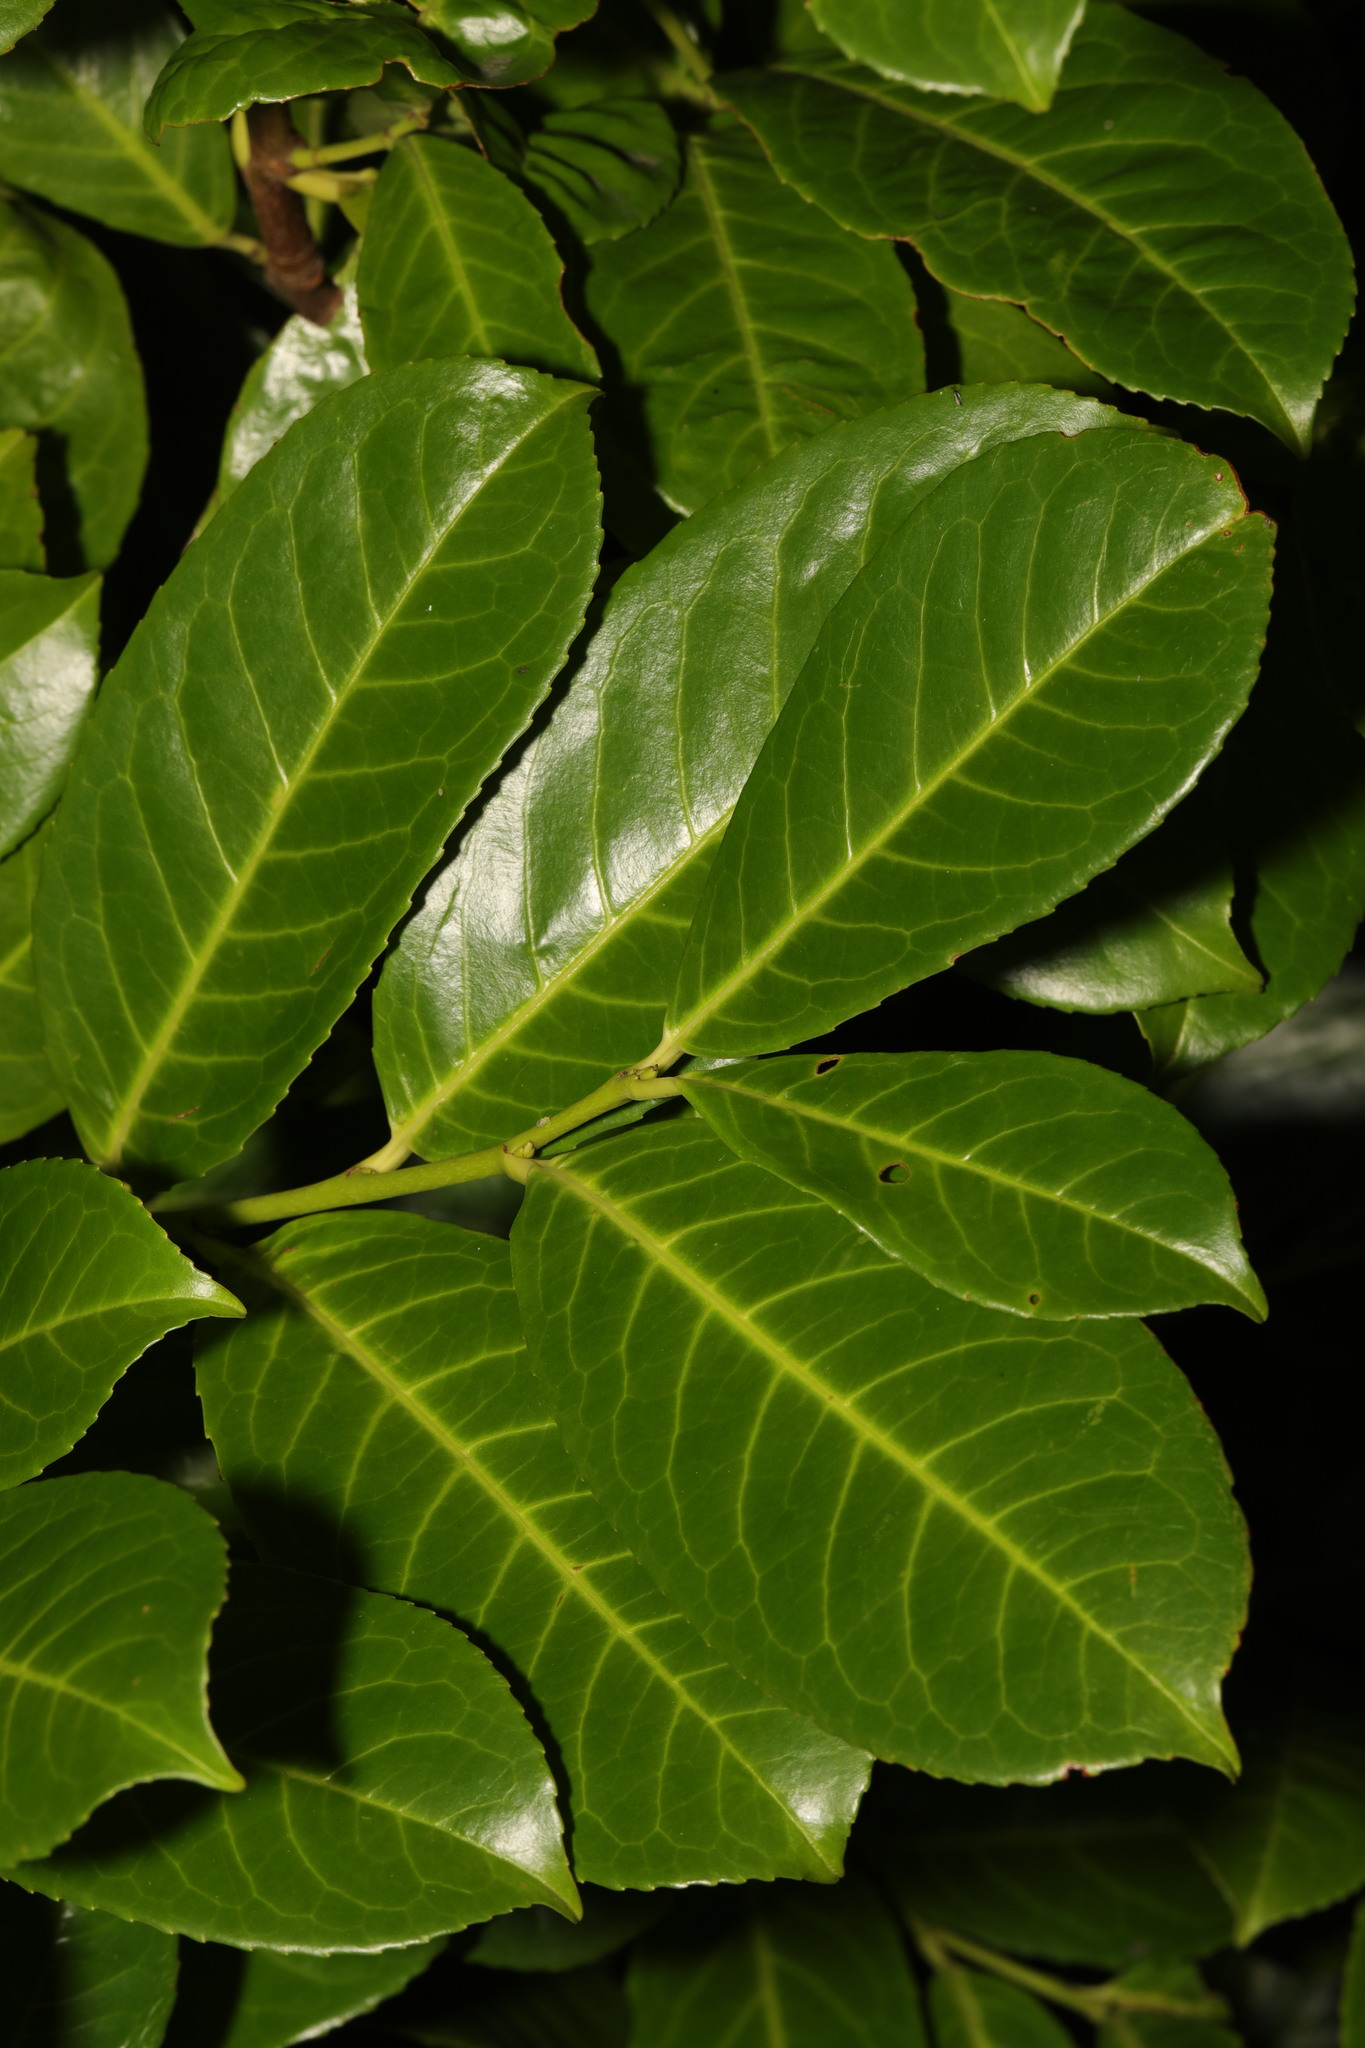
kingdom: Plantae
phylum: Tracheophyta
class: Magnoliopsida
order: Rosales
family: Rosaceae
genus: Prunus
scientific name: Prunus laurocerasus
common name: Cherry laurel
